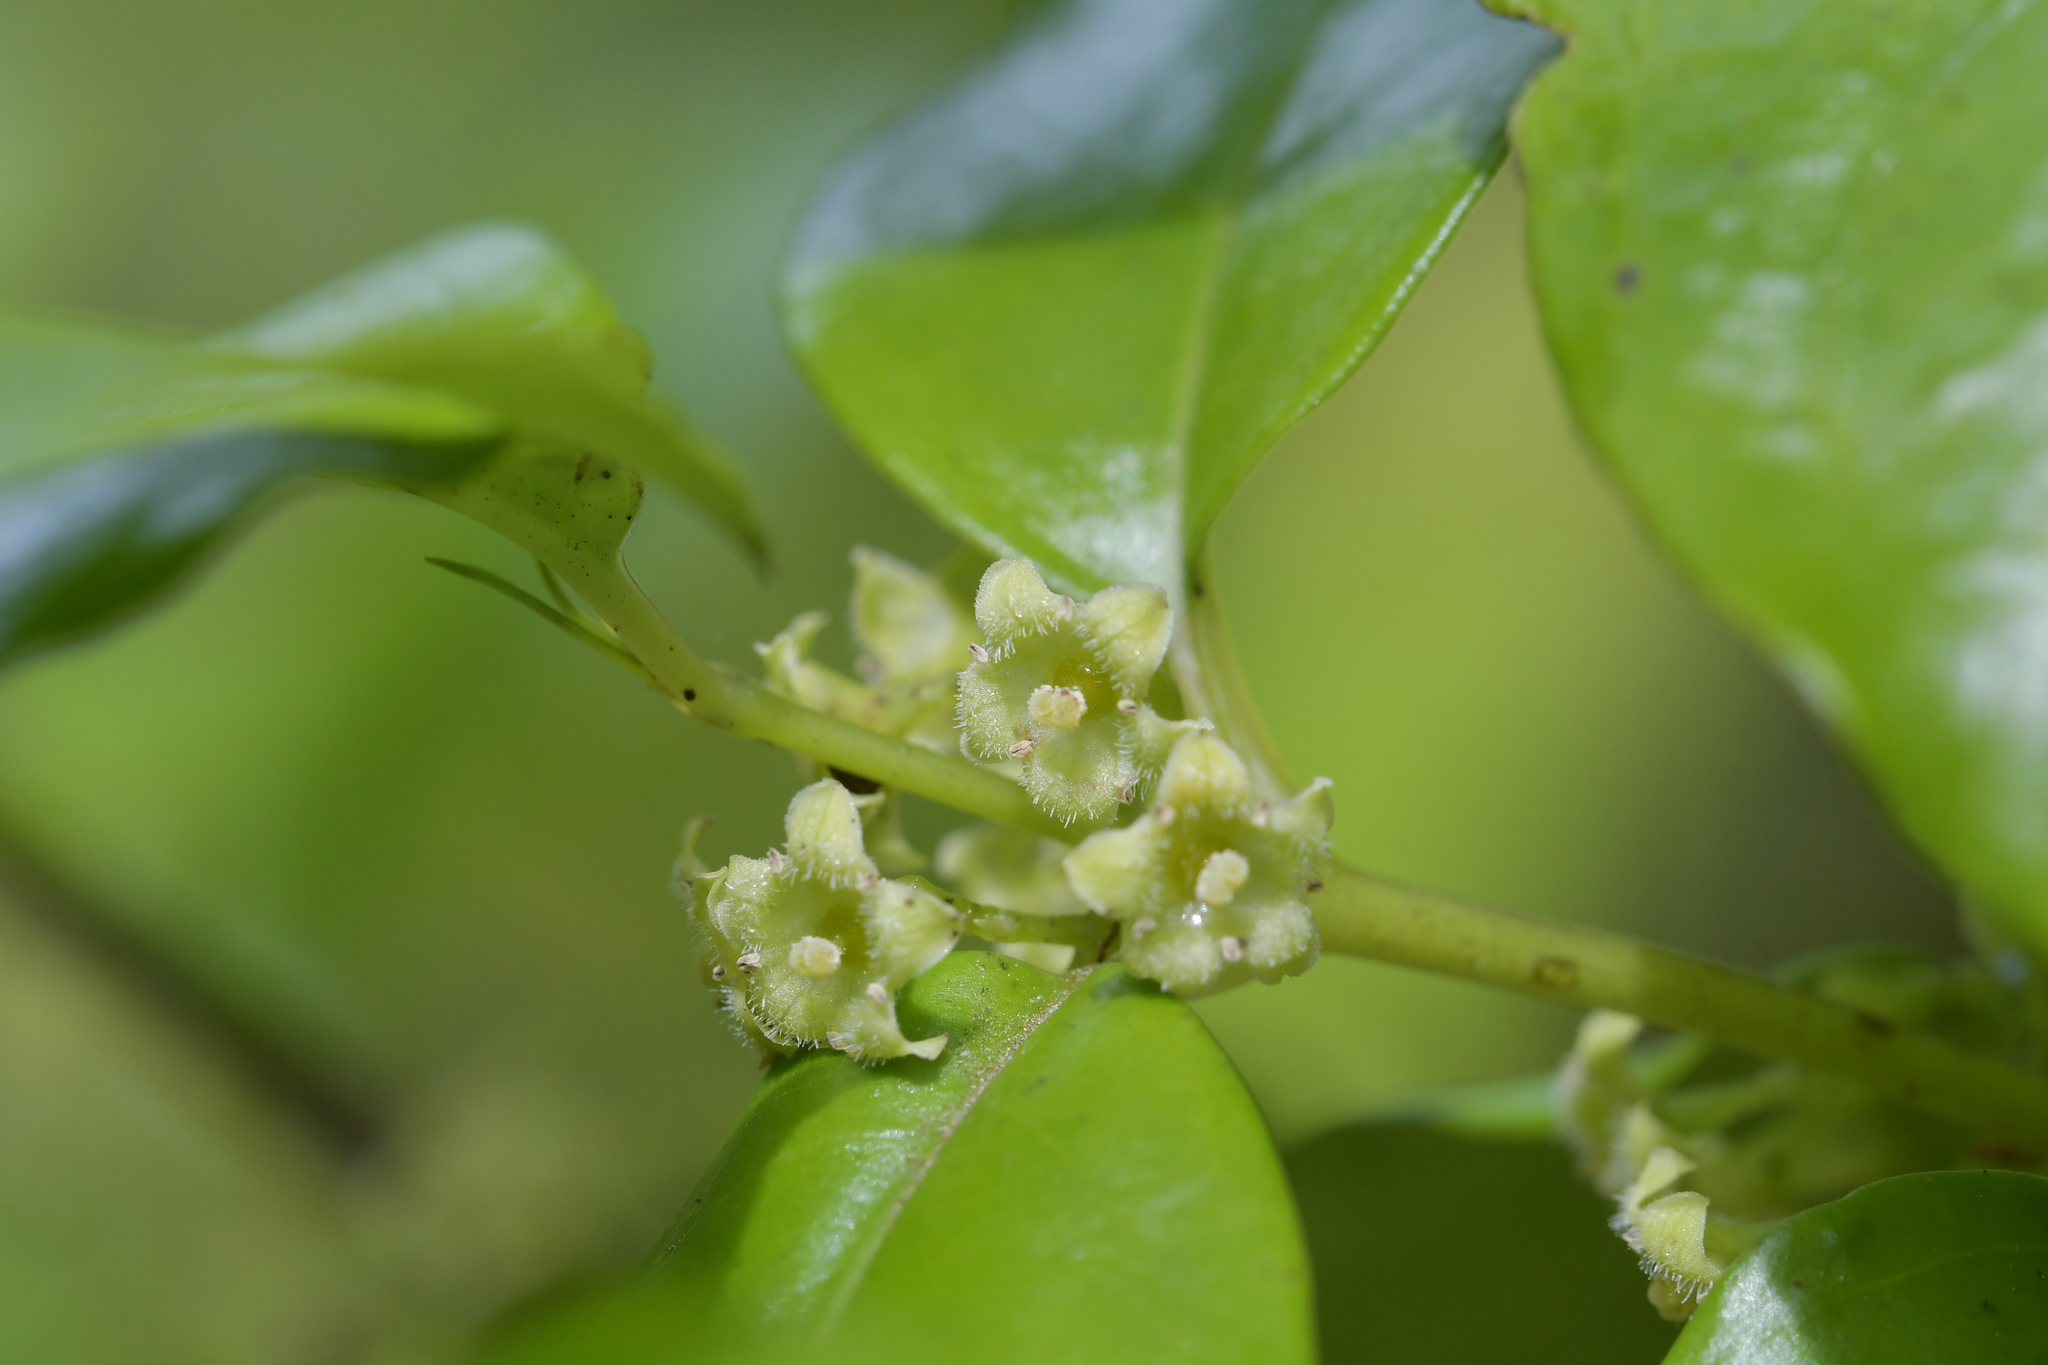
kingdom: Plantae
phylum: Tracheophyta
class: Magnoliopsida
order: Gentianales
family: Loganiaceae
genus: Geniostoma
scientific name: Geniostoma ligustrifolium
